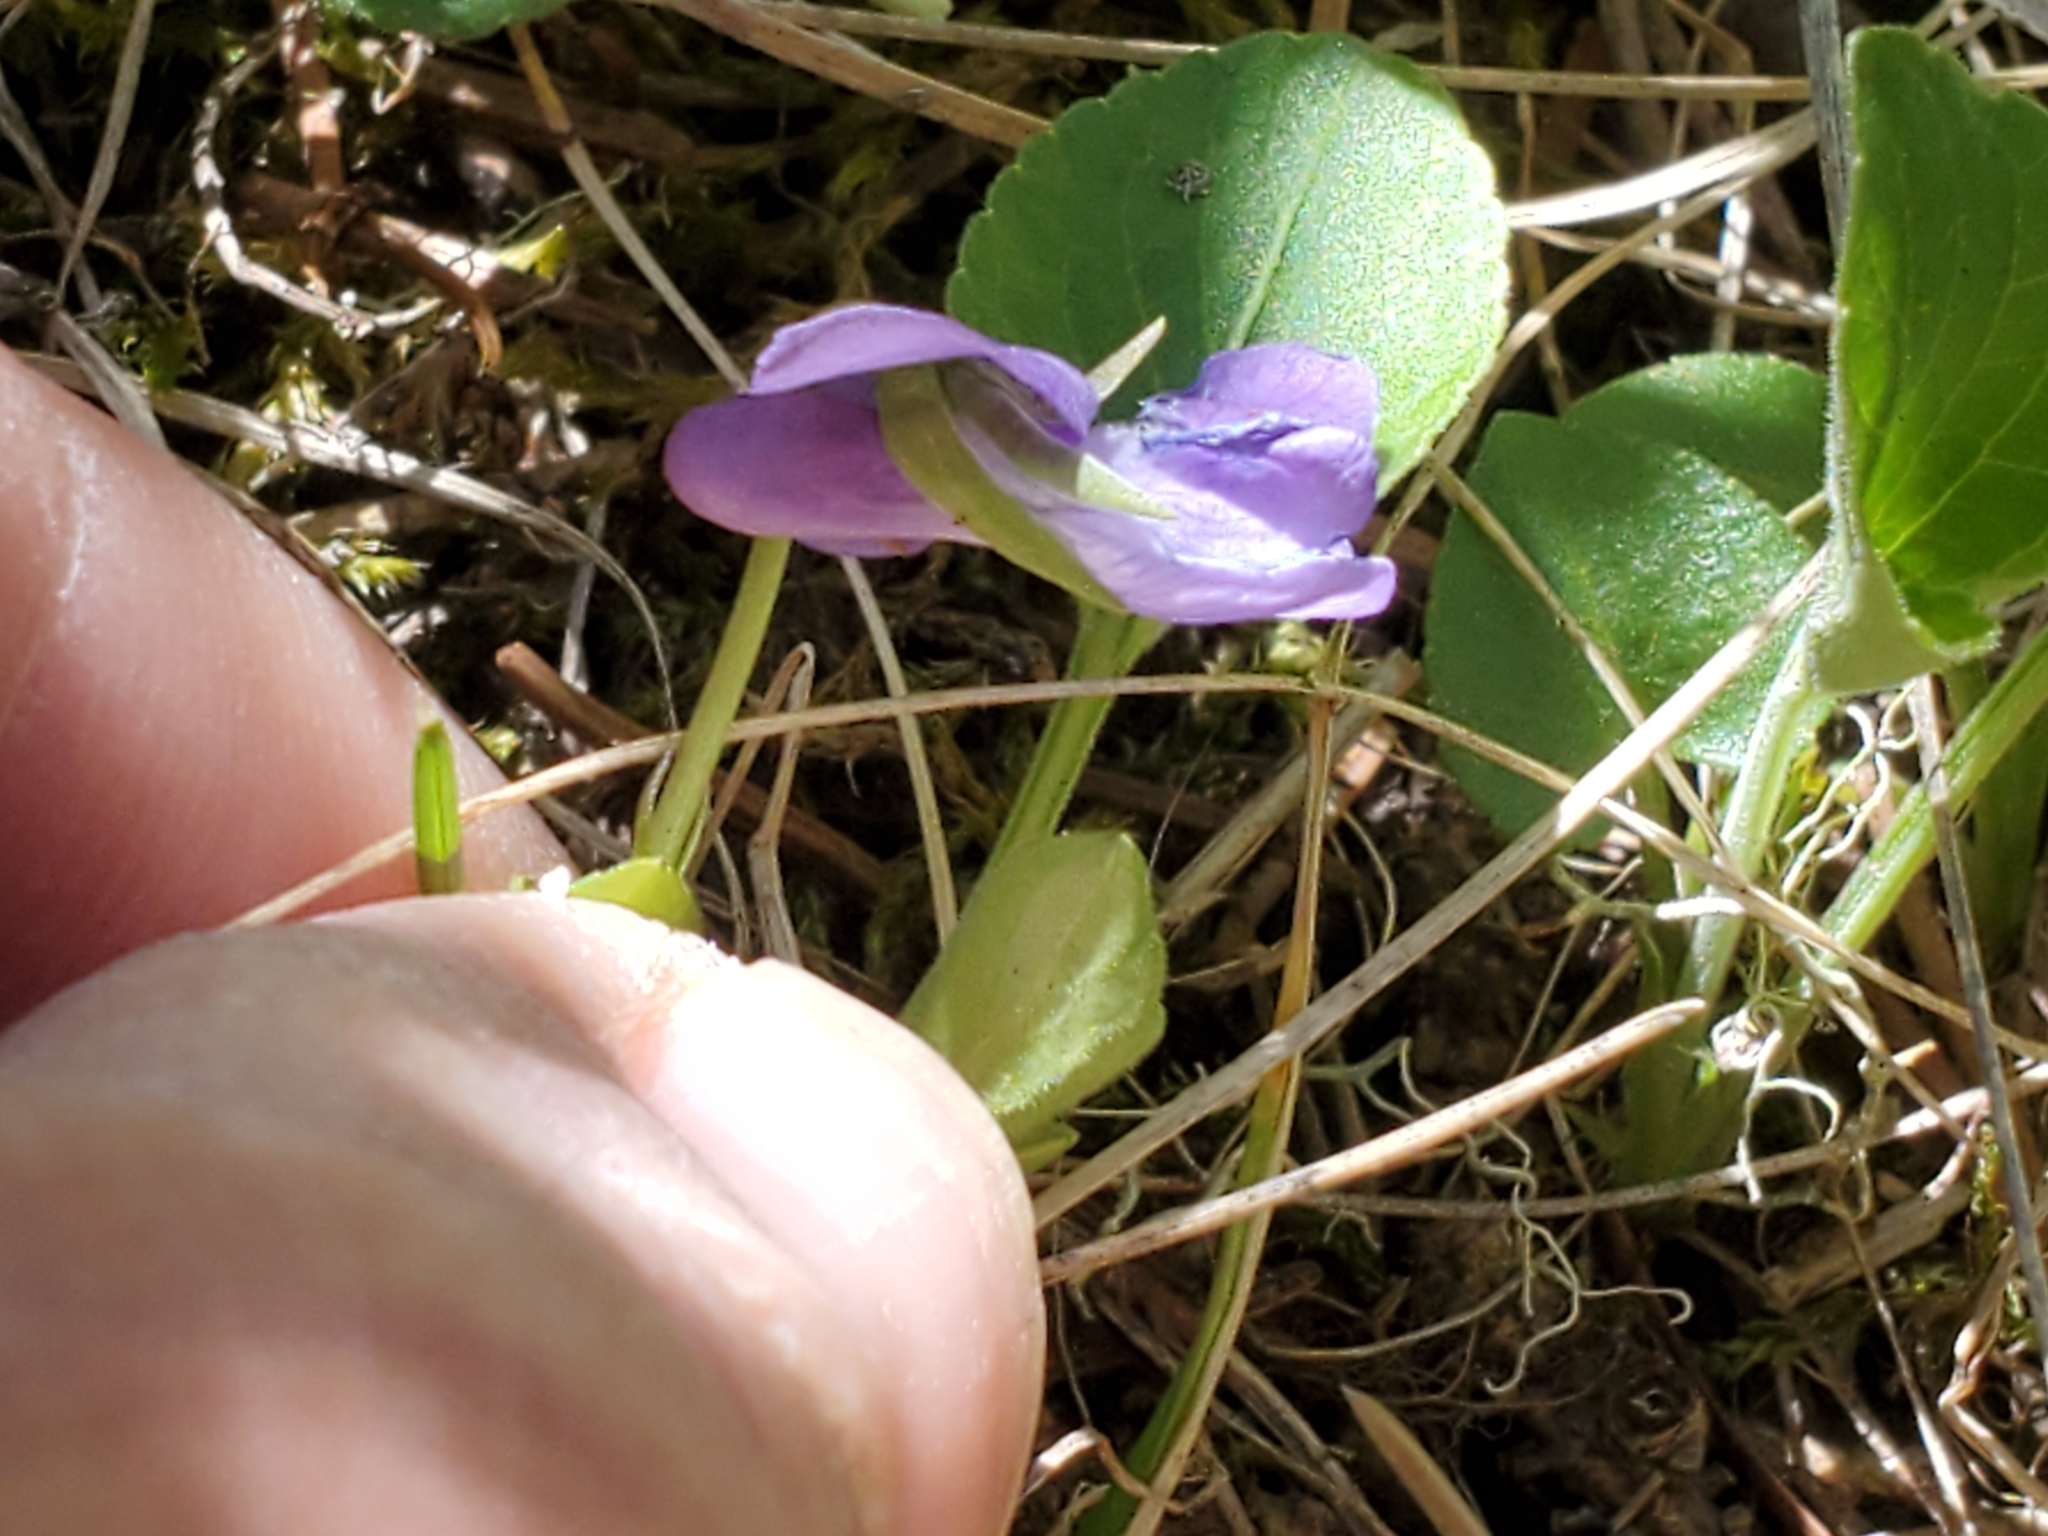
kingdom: Plantae
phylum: Tracheophyta
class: Magnoliopsida
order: Malpighiales
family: Violaceae
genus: Viola
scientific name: Viola adunca
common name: Sand violet
